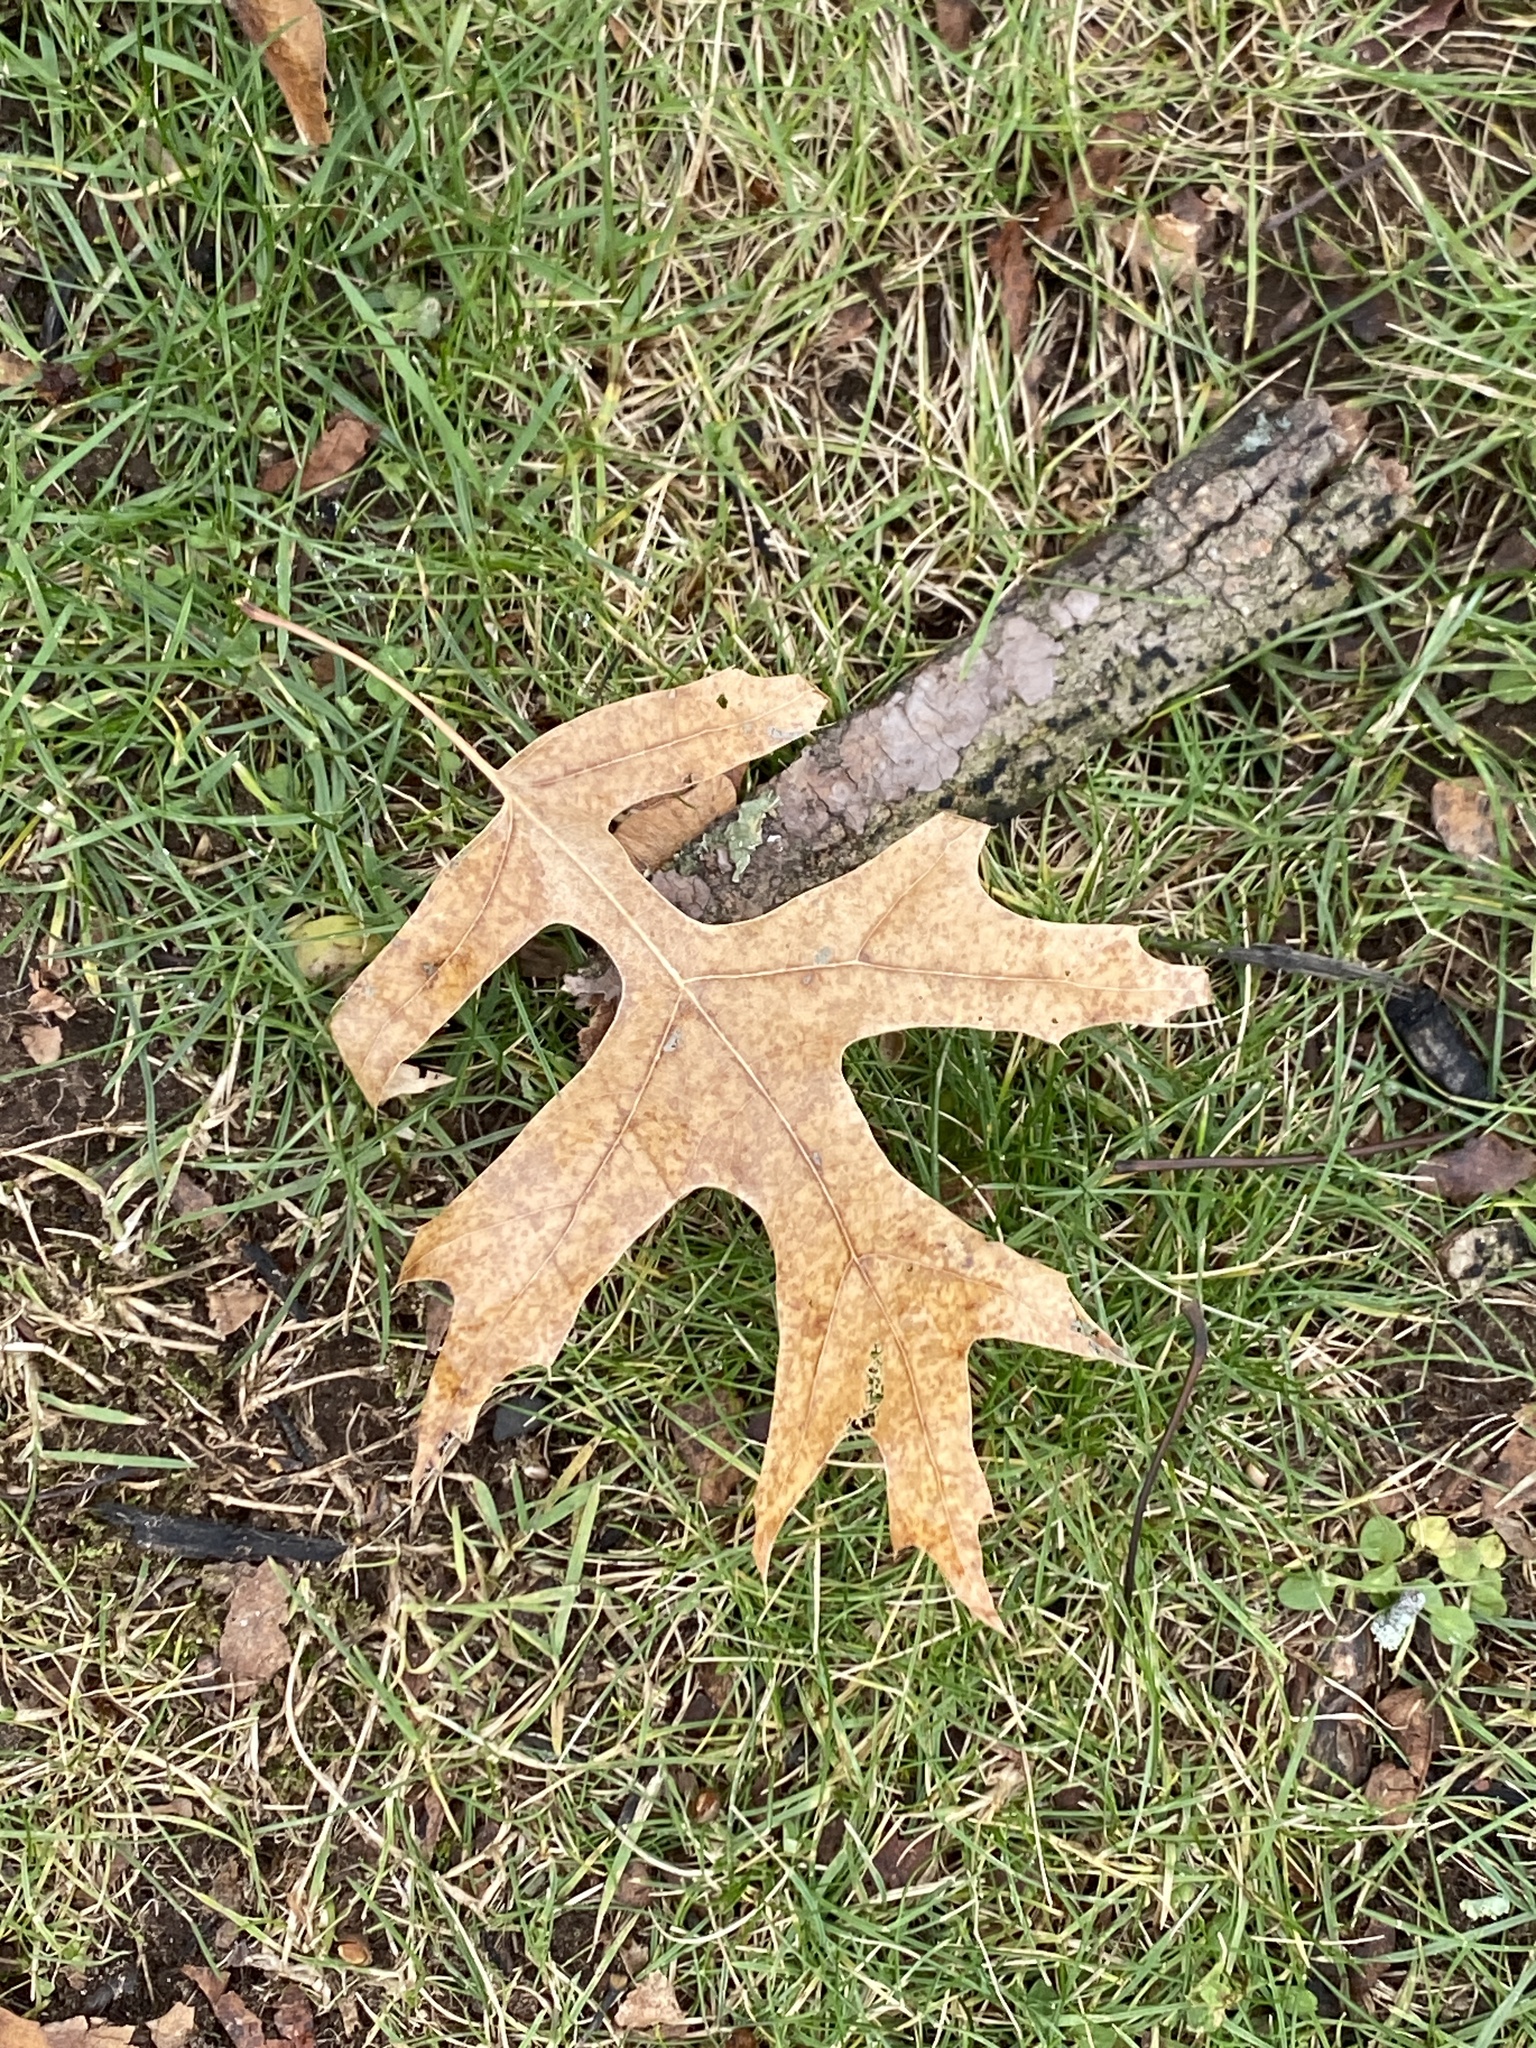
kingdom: Plantae
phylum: Tracheophyta
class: Magnoliopsida
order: Fagales
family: Fagaceae
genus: Quercus
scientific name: Quercus palustris
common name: Pin oak
